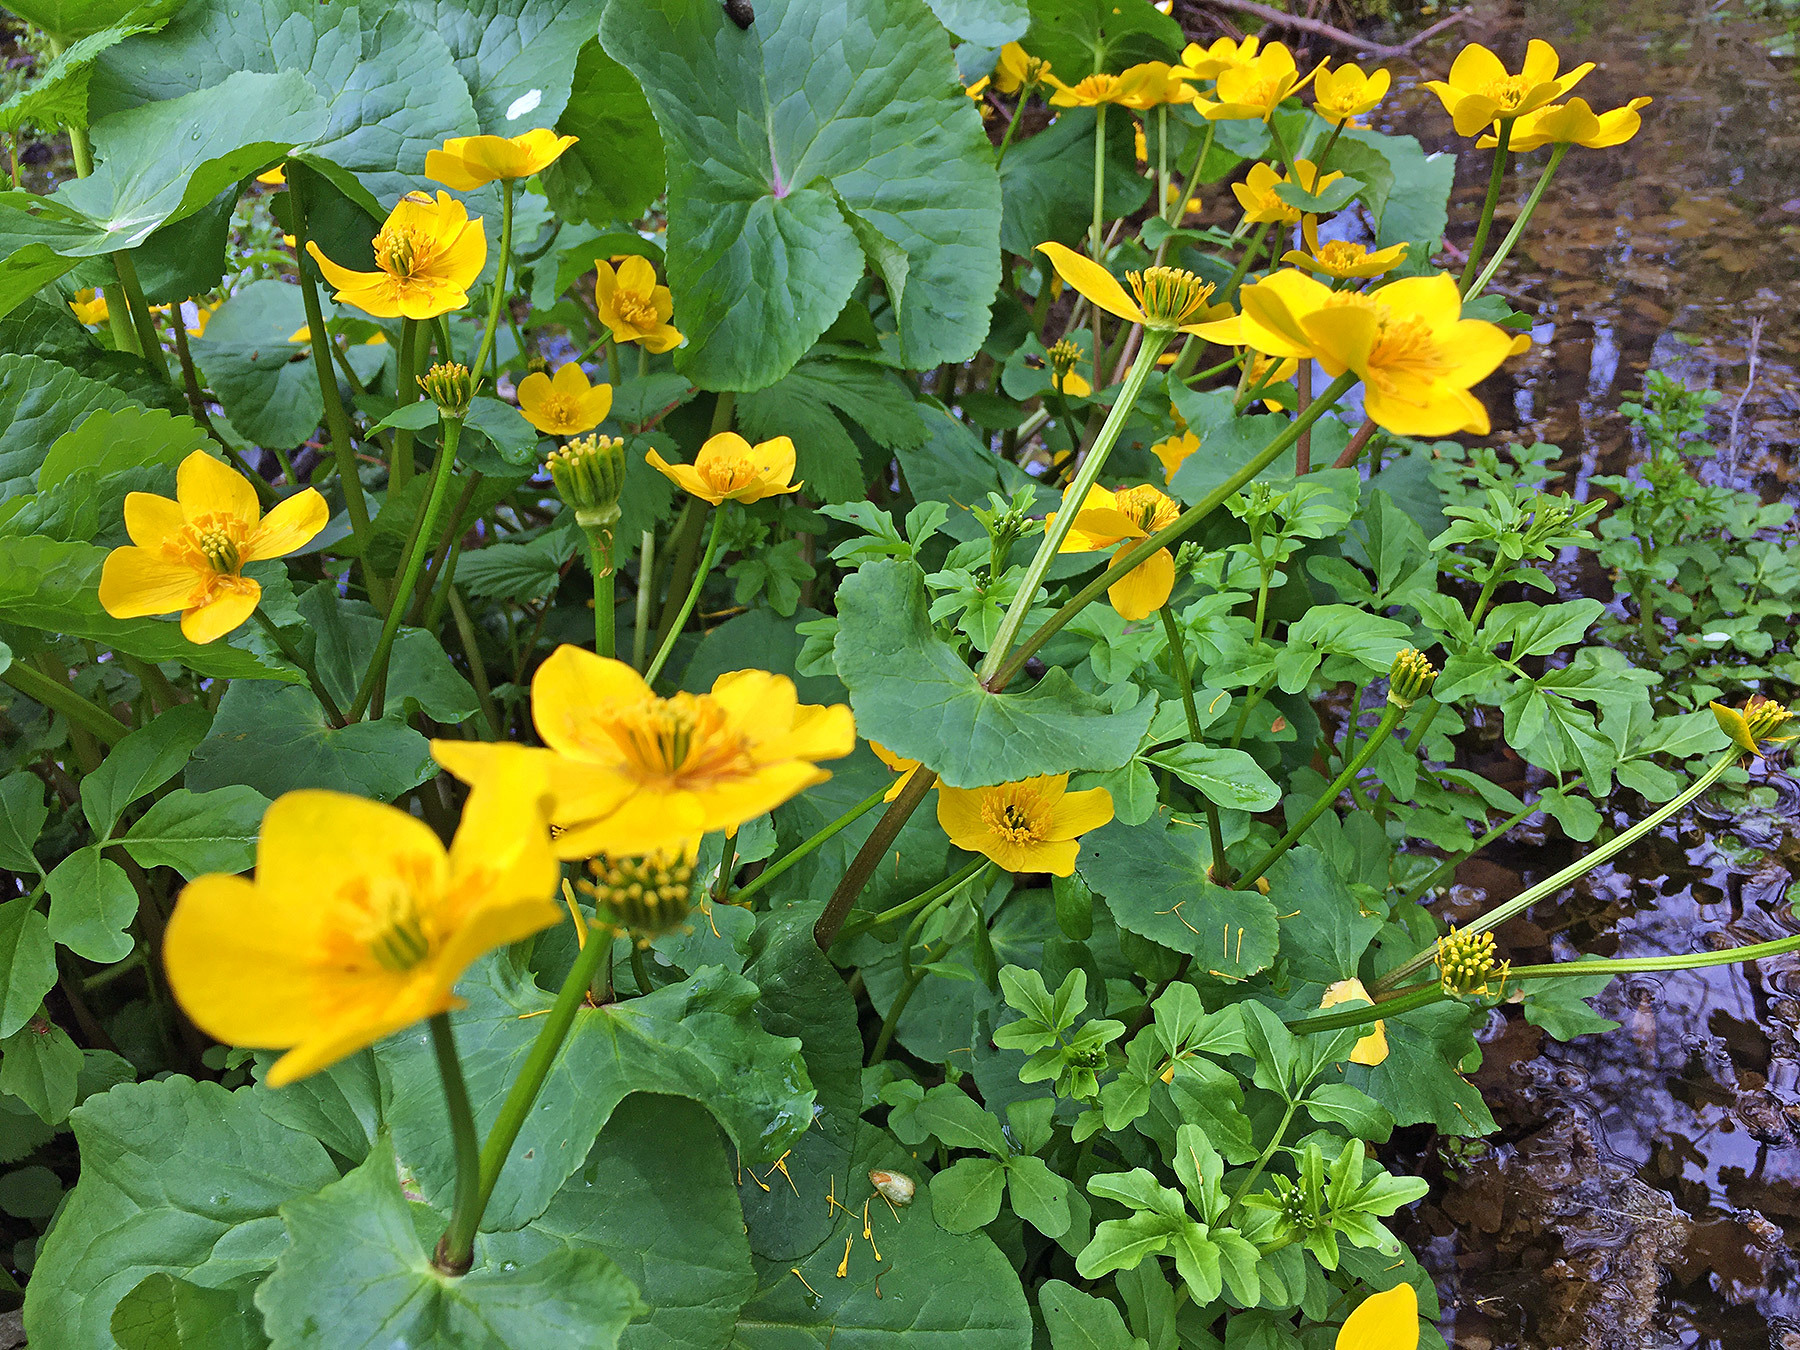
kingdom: Plantae
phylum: Tracheophyta
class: Magnoliopsida
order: Ranunculales
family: Ranunculaceae
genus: Caltha
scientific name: Caltha palustris
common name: Marsh marigold
